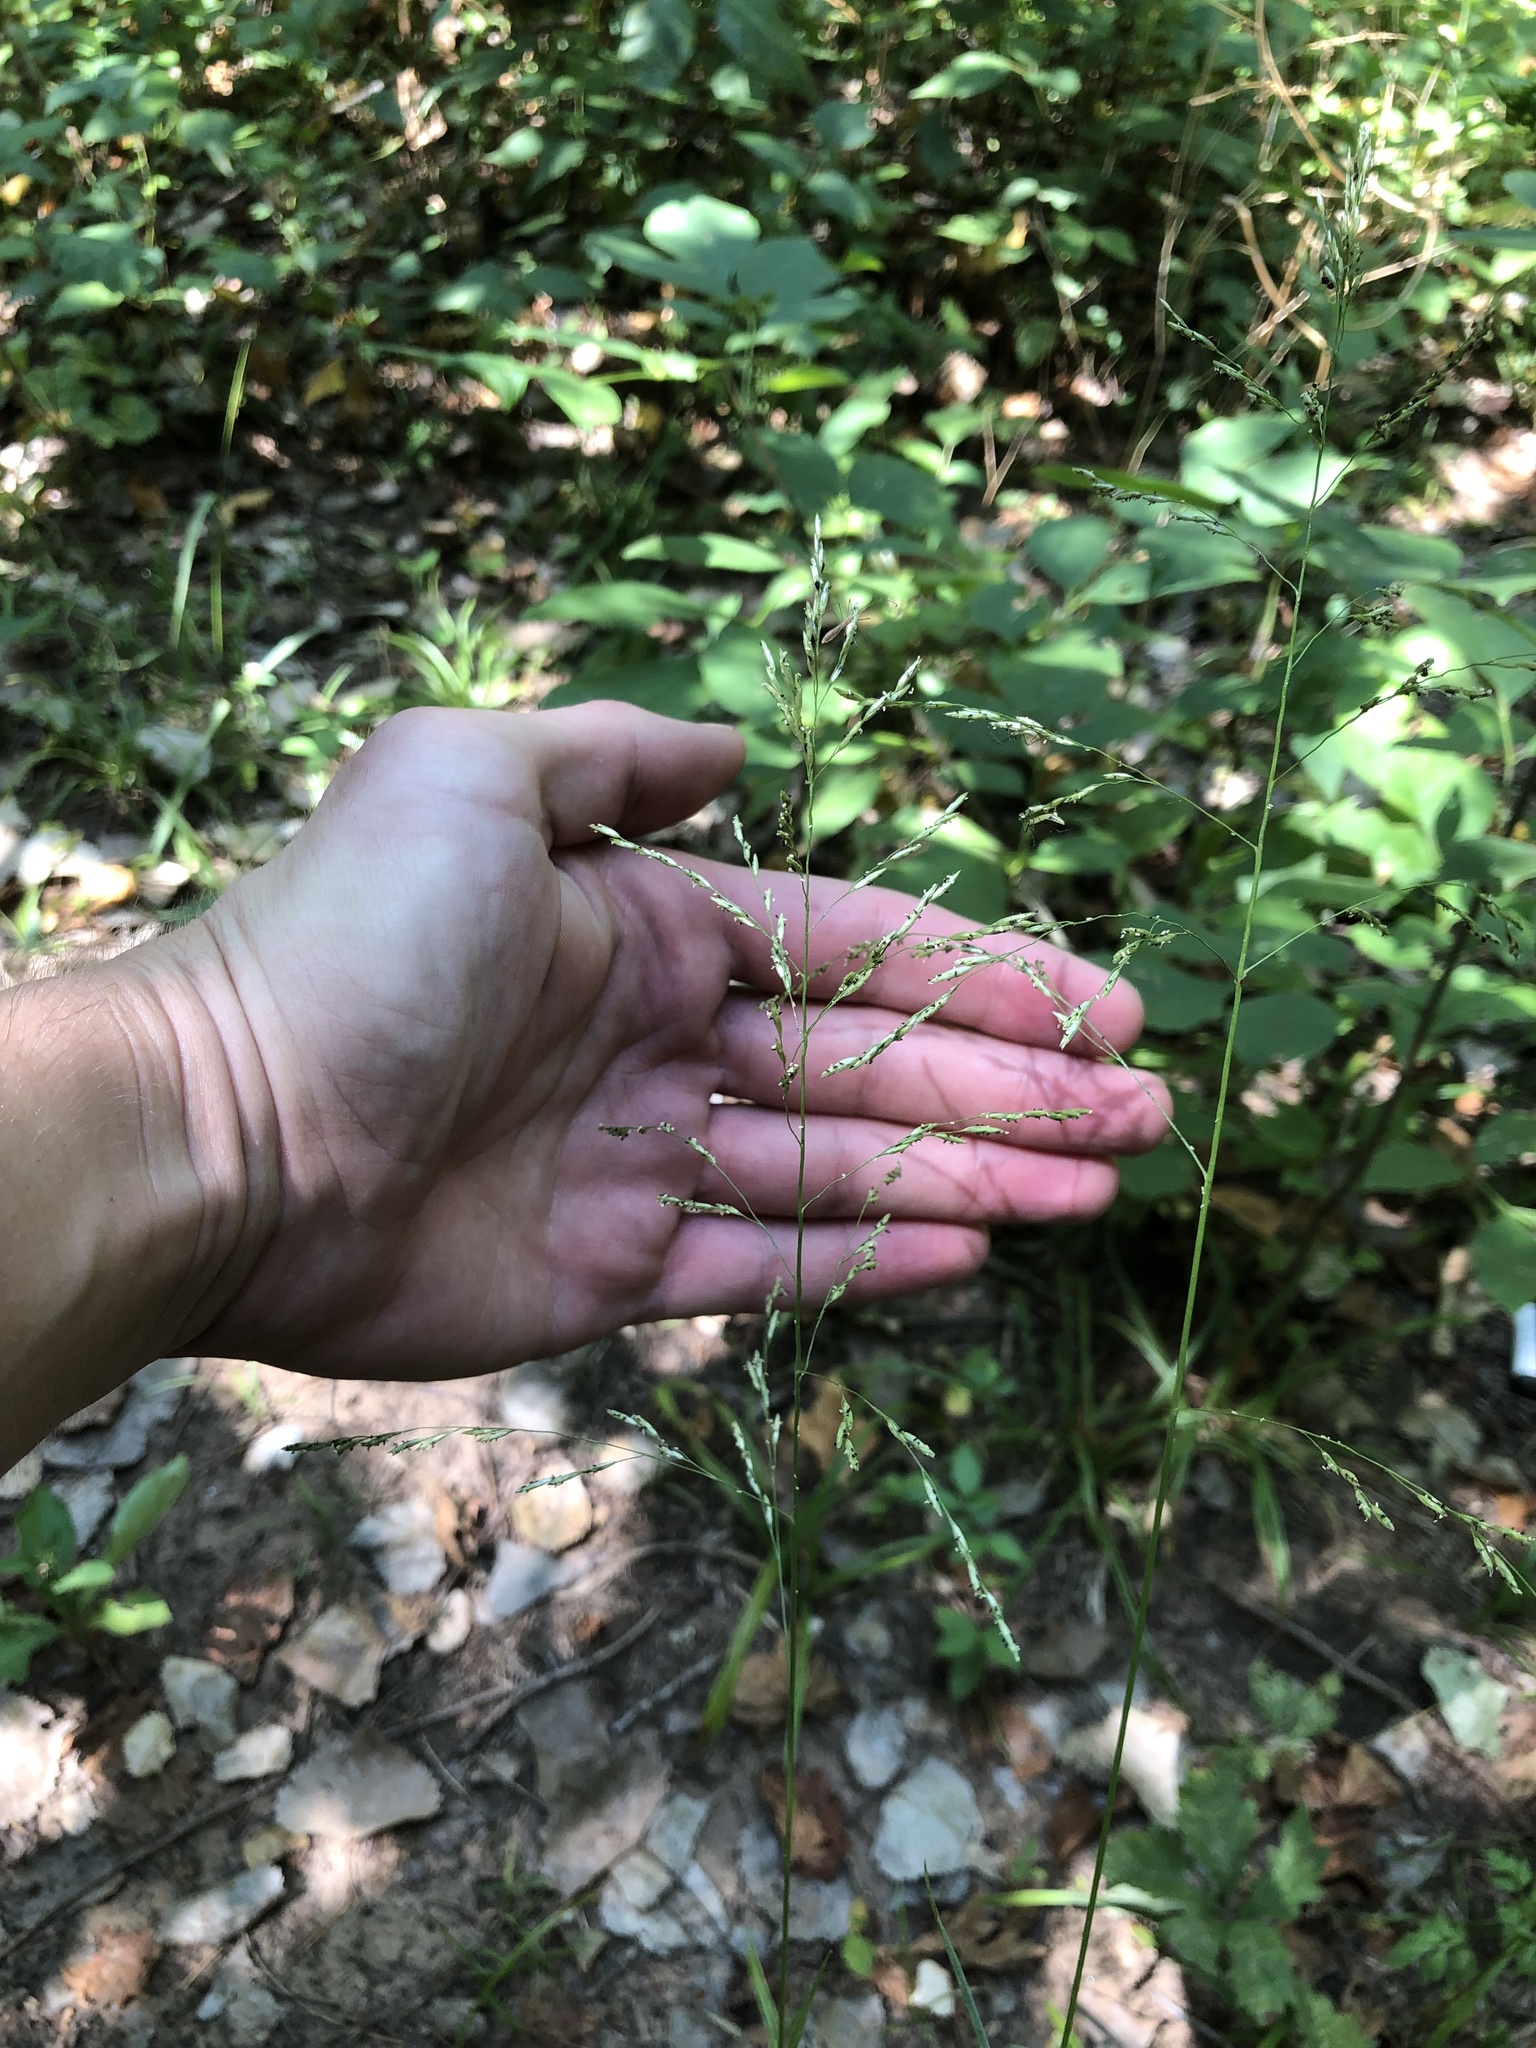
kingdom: Plantae
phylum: Tracheophyta
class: Liliopsida
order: Poales
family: Poaceae
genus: Tridens
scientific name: Tridens flavus
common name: Purpletop
